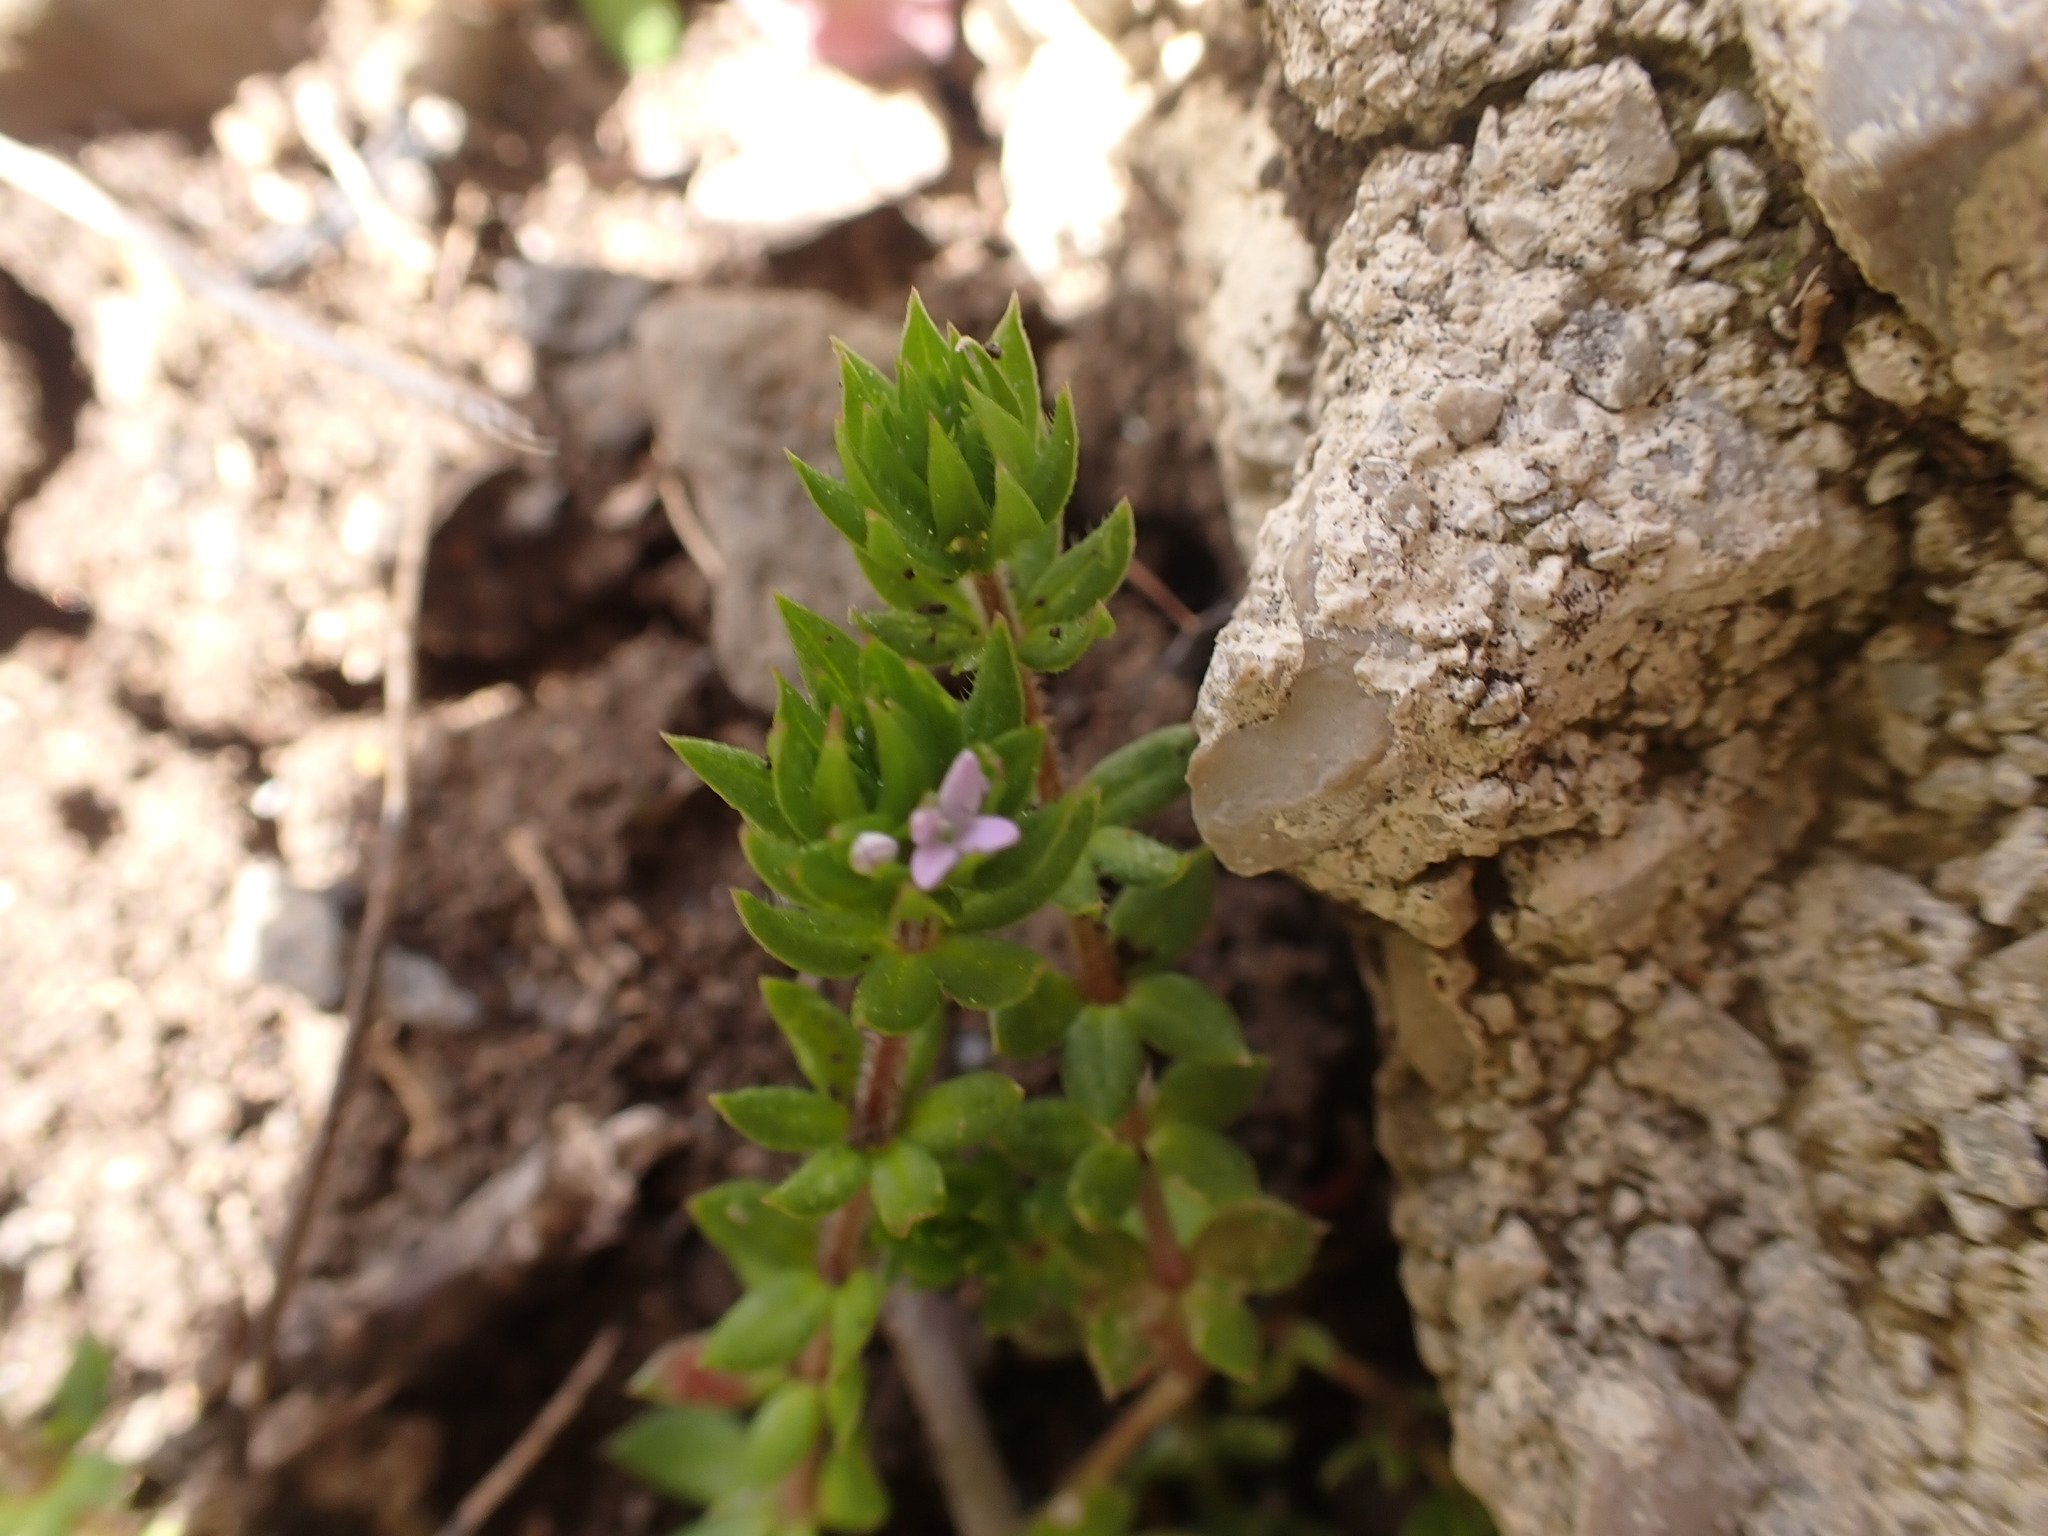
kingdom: Plantae
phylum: Tracheophyta
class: Magnoliopsida
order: Gentianales
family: Rubiaceae
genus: Sherardia
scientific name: Sherardia arvensis
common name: Field madder
